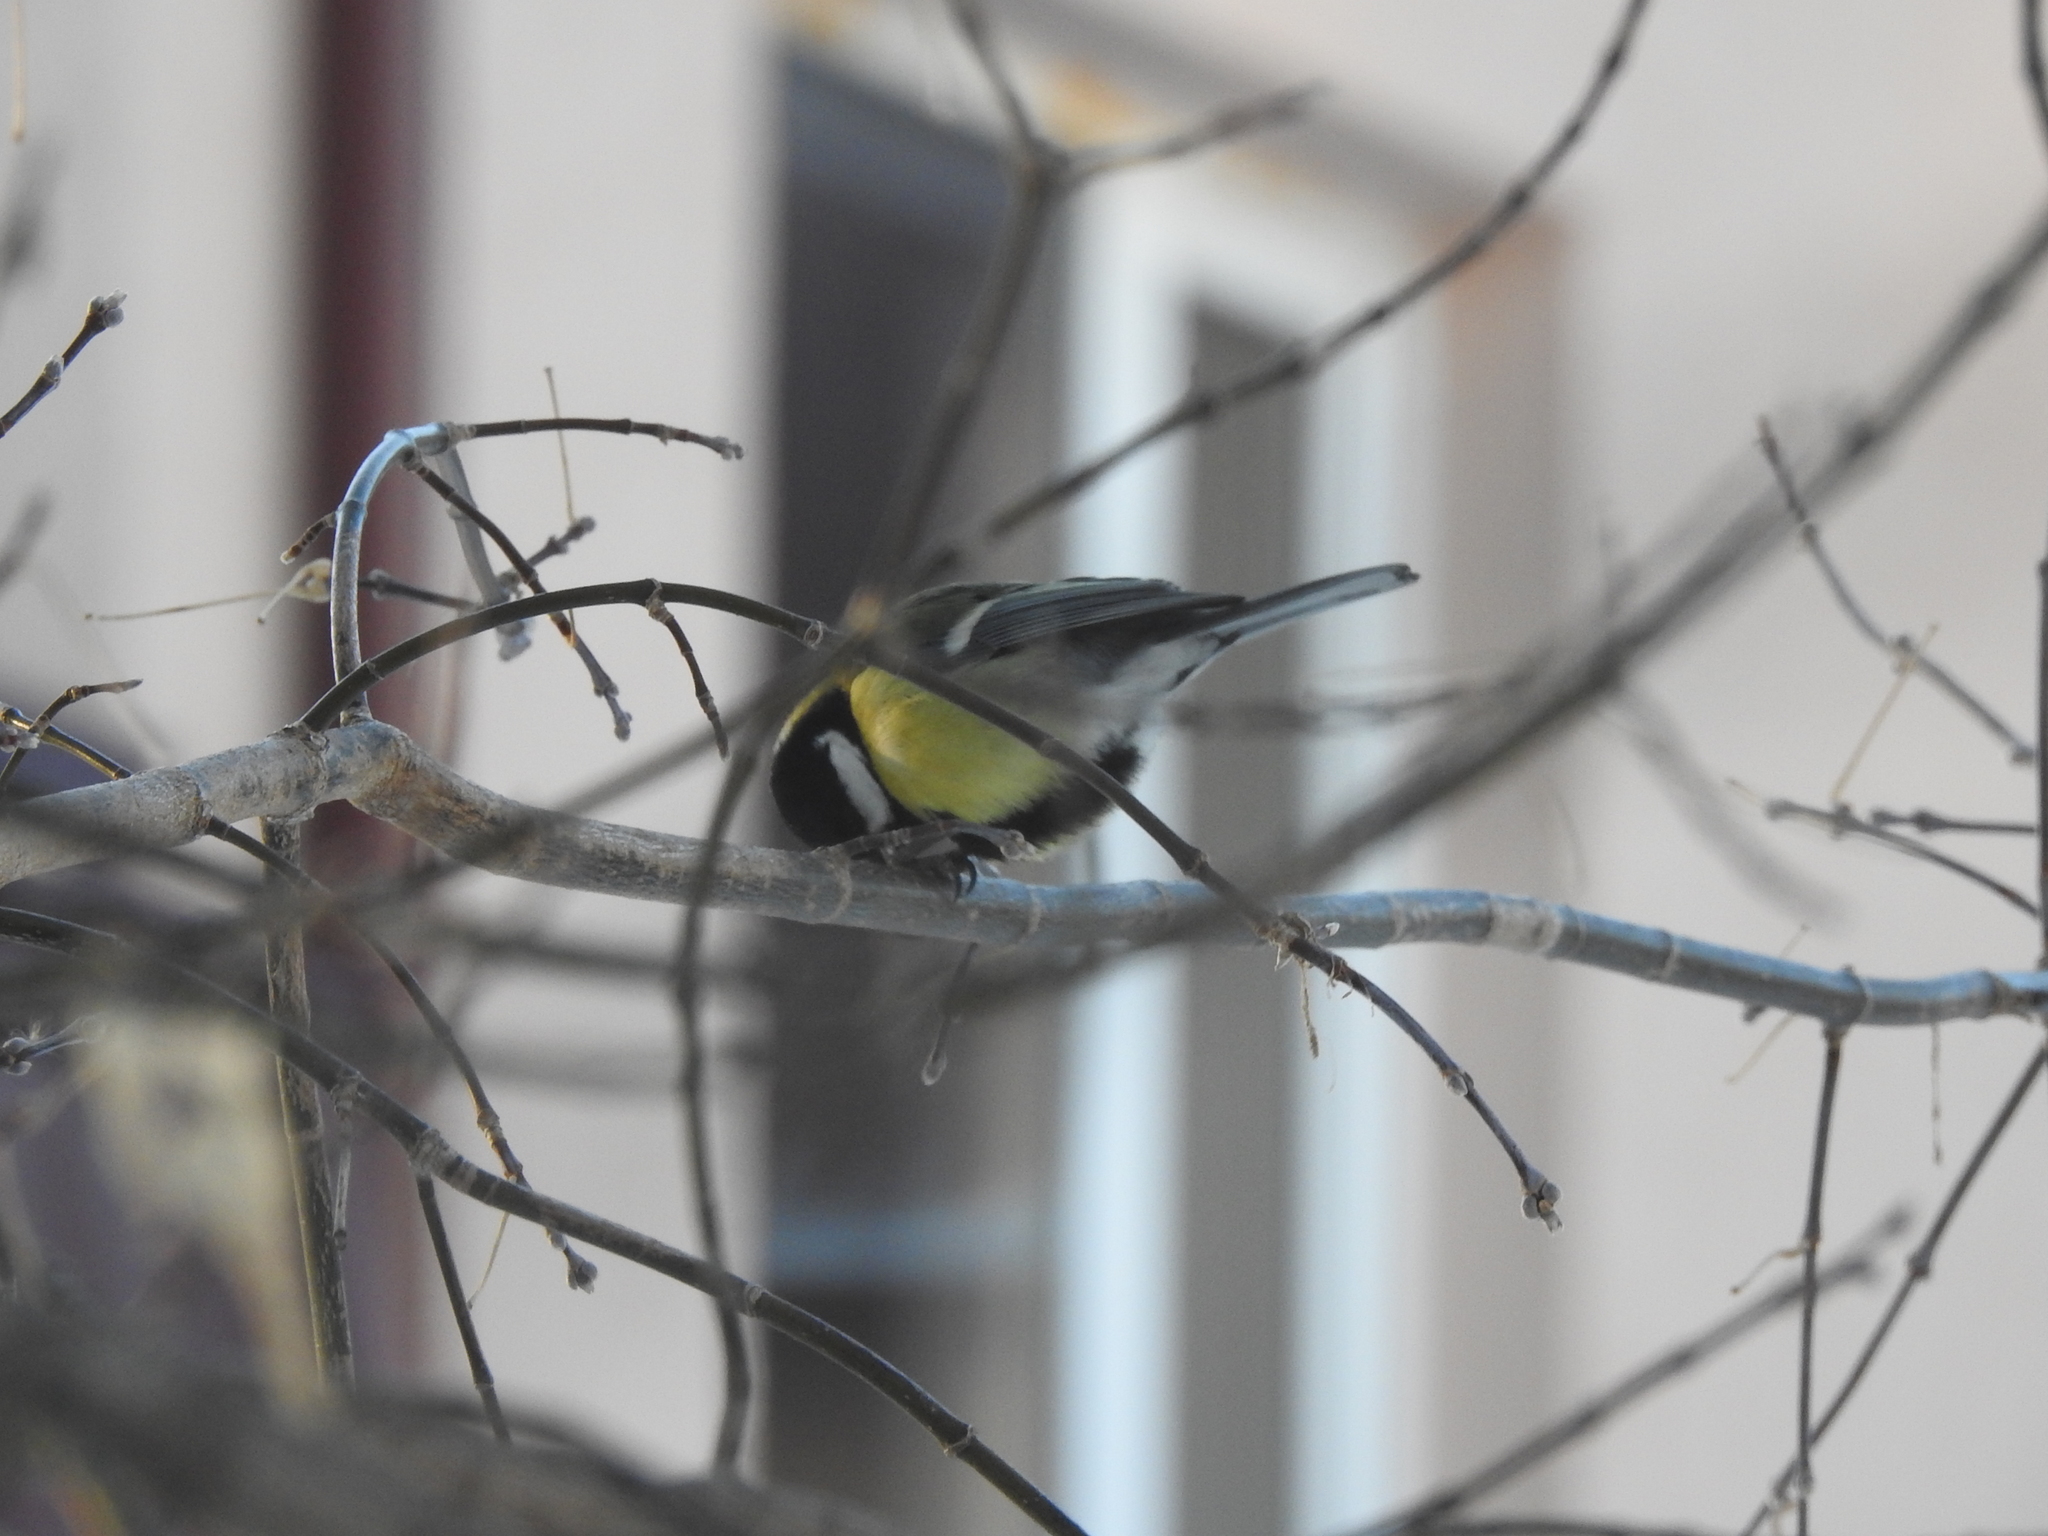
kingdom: Animalia
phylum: Chordata
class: Aves
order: Passeriformes
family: Paridae
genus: Parus
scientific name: Parus major
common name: Great tit
